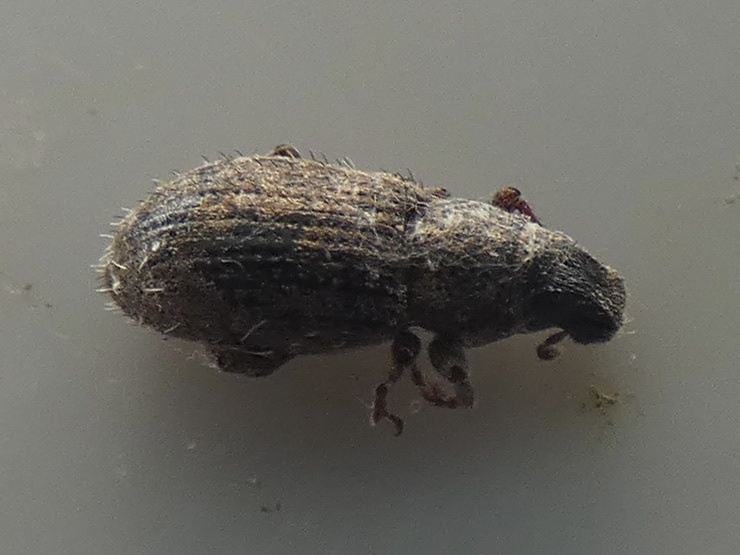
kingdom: Animalia
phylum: Arthropoda
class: Insecta
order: Coleoptera
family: Curculionidae
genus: Sitona
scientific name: Sitona hispidulus
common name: Clover weevil
